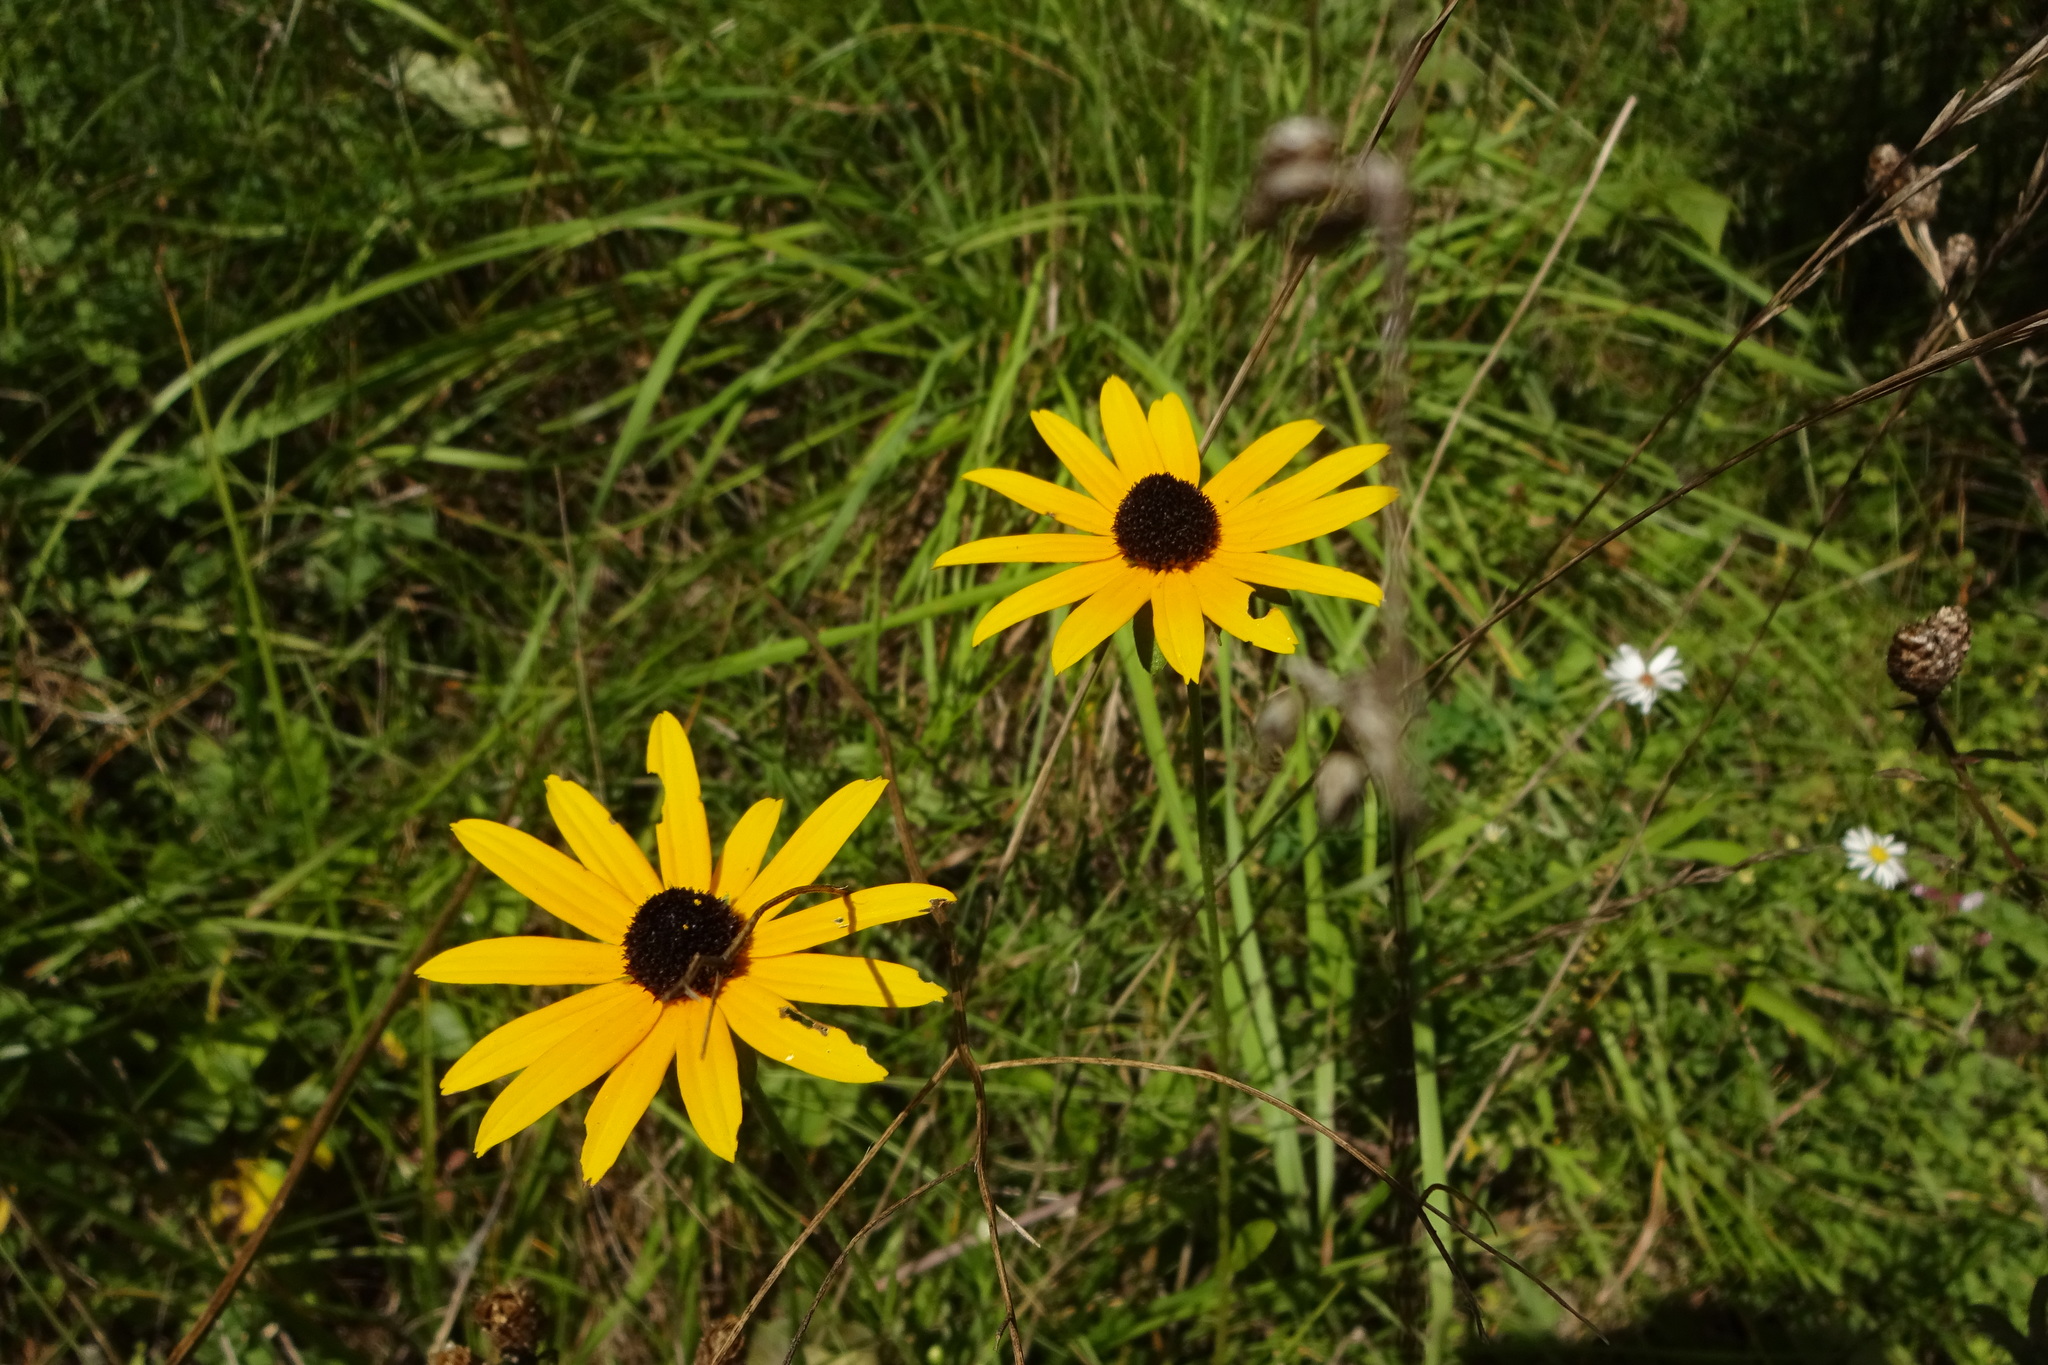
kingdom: Plantae
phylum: Tracheophyta
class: Magnoliopsida
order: Asterales
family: Asteraceae
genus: Rudbeckia
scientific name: Rudbeckia hirta
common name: Black-eyed-susan
